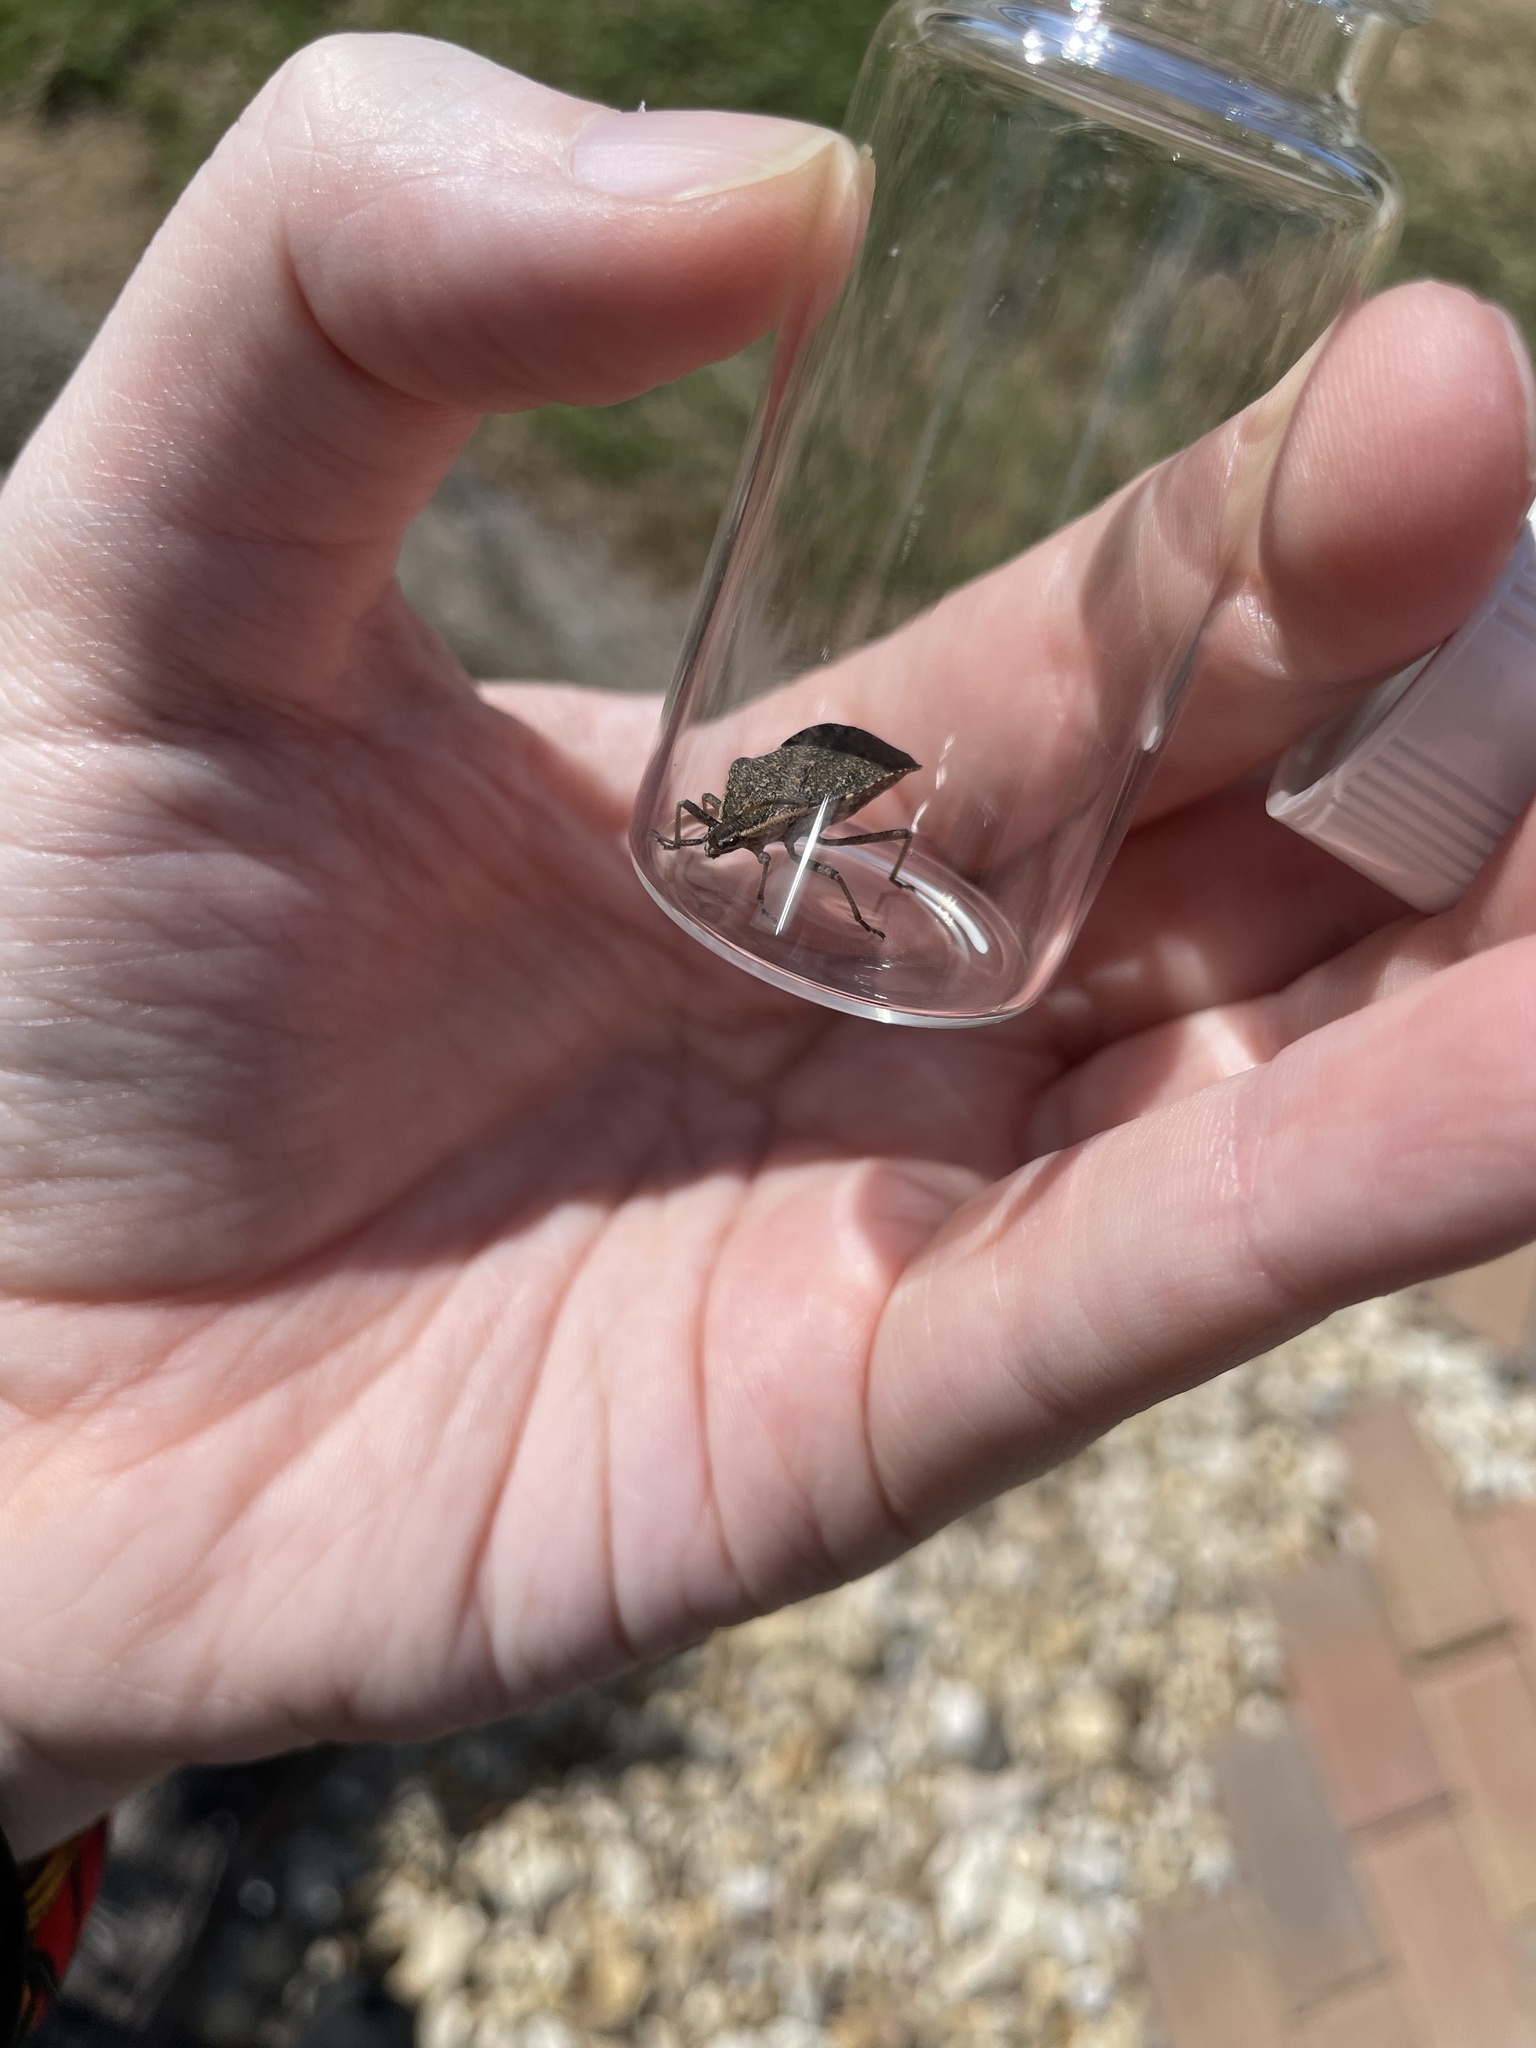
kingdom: Animalia
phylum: Arthropoda
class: Insecta
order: Hemiptera
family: Coreidae
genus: Anasa
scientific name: Anasa tristis
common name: Squash bug
